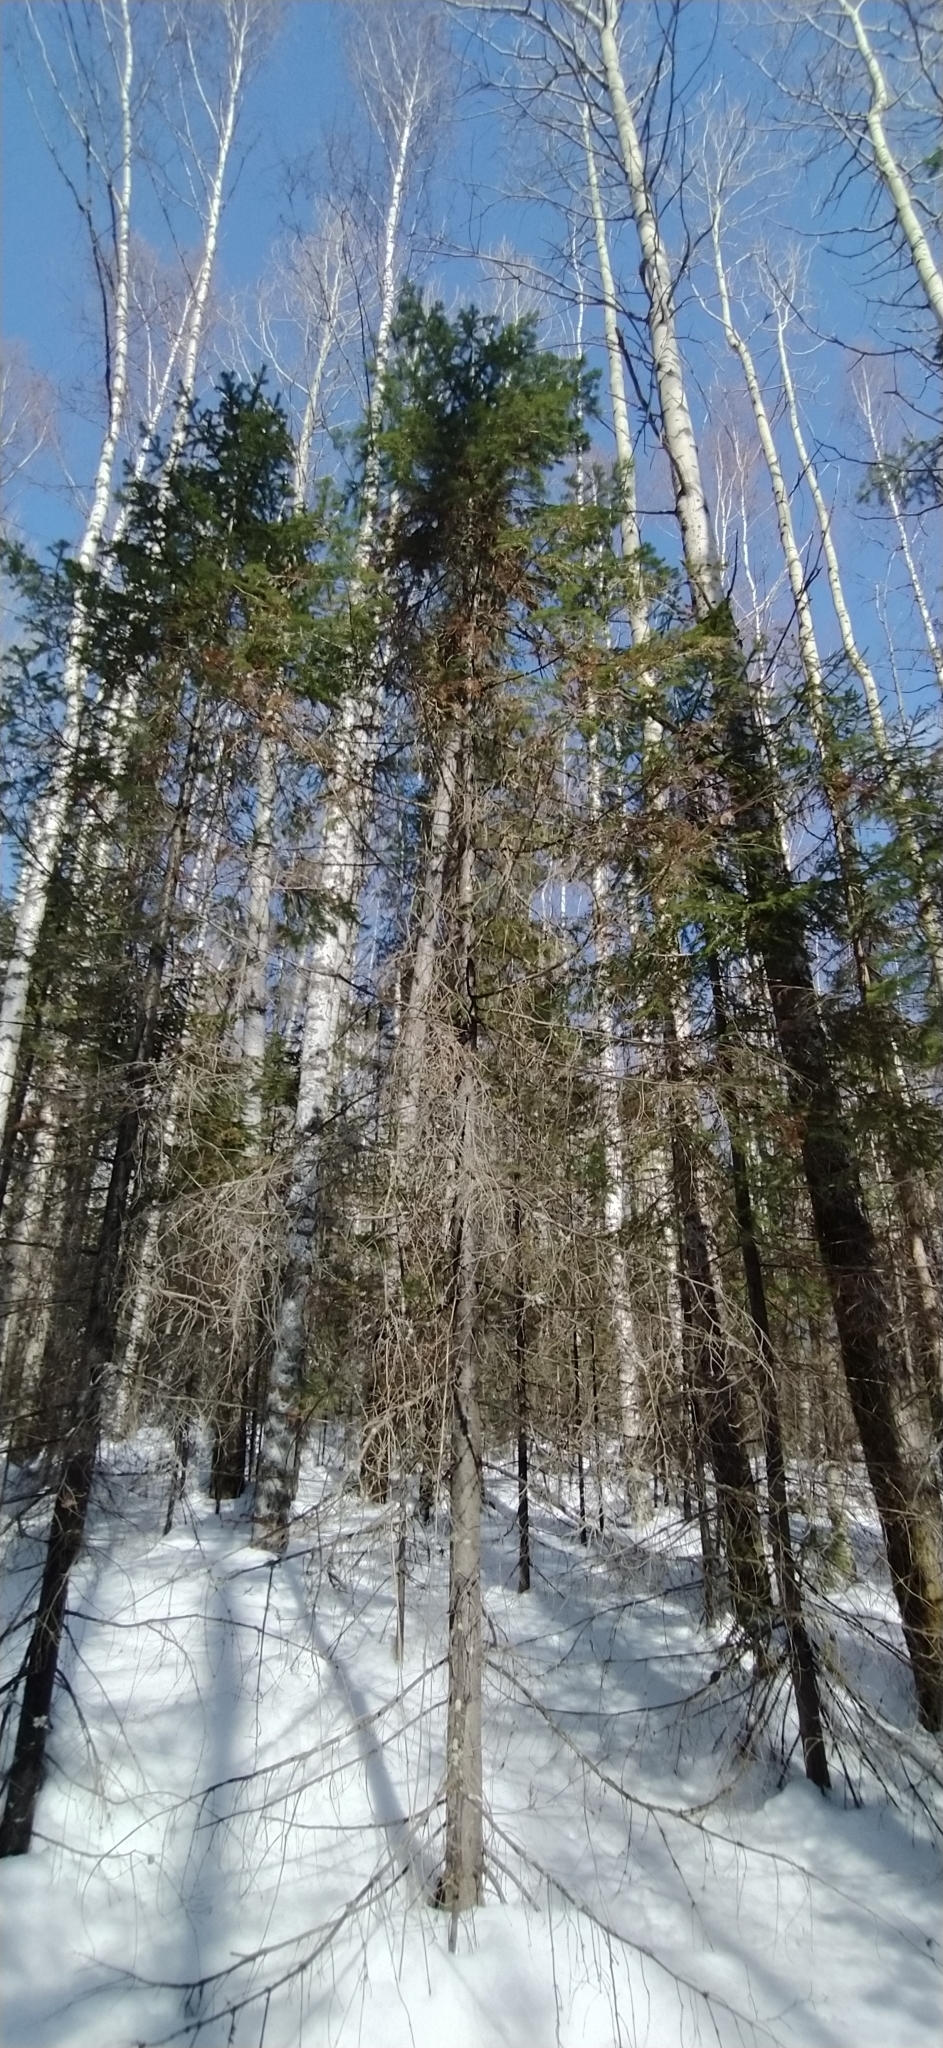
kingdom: Plantae
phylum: Tracheophyta
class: Pinopsida
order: Pinales
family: Pinaceae
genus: Abies
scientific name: Abies sibirica
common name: Siberian fir
